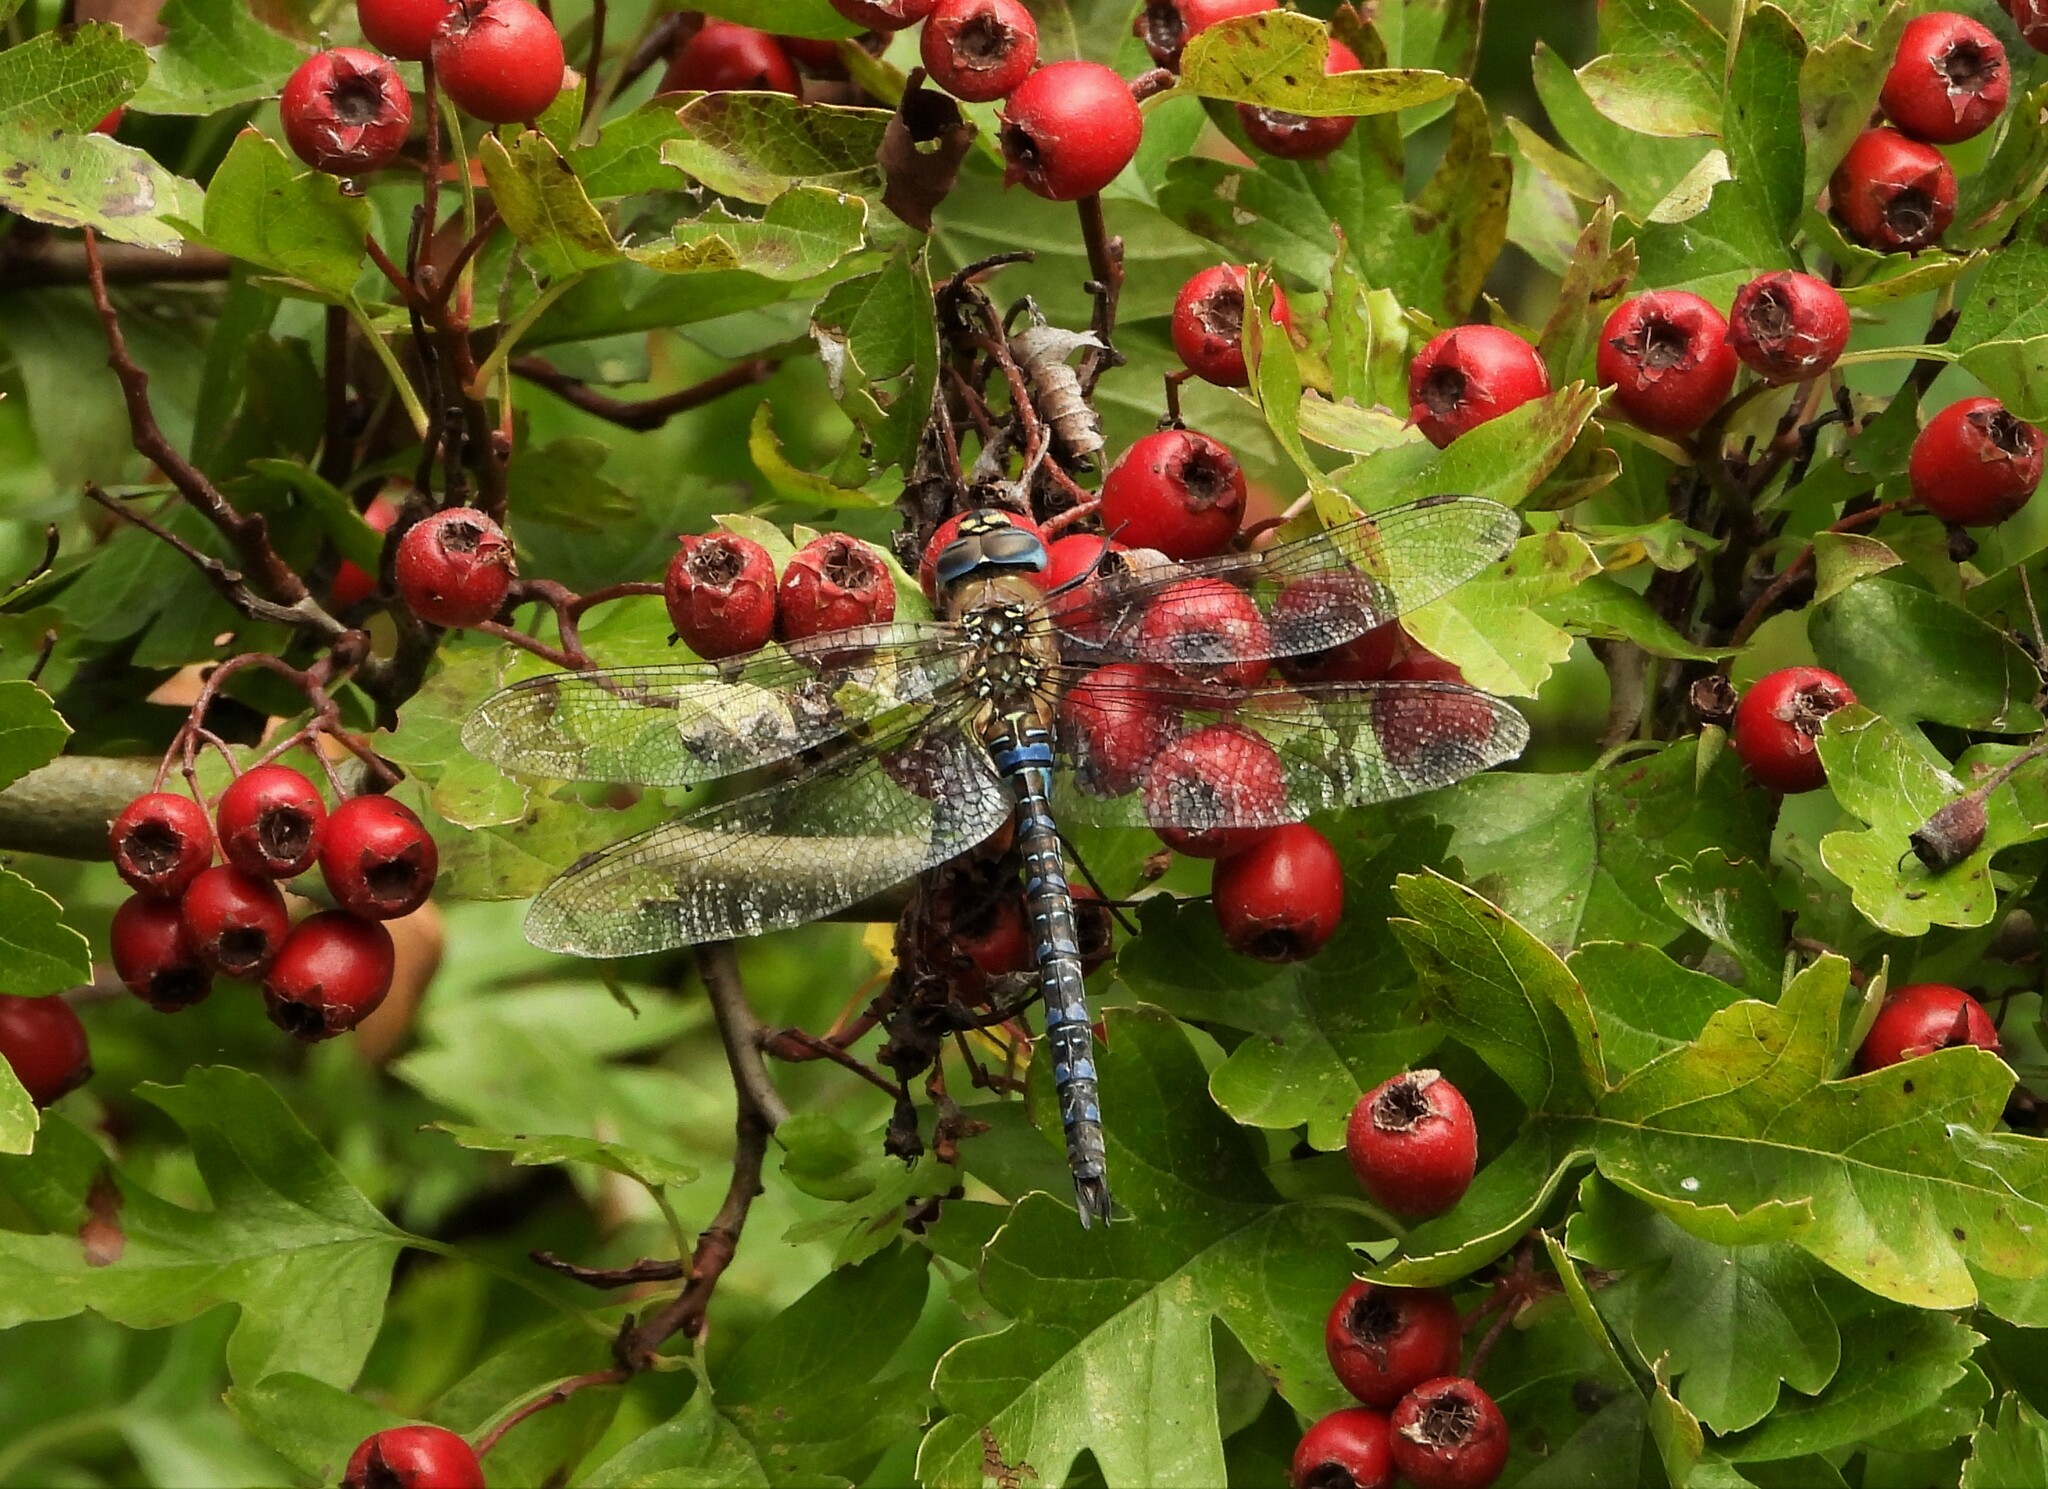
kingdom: Animalia
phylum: Arthropoda
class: Insecta
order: Odonata
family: Aeshnidae
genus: Aeshna
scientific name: Aeshna mixta
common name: Migrant hawker
